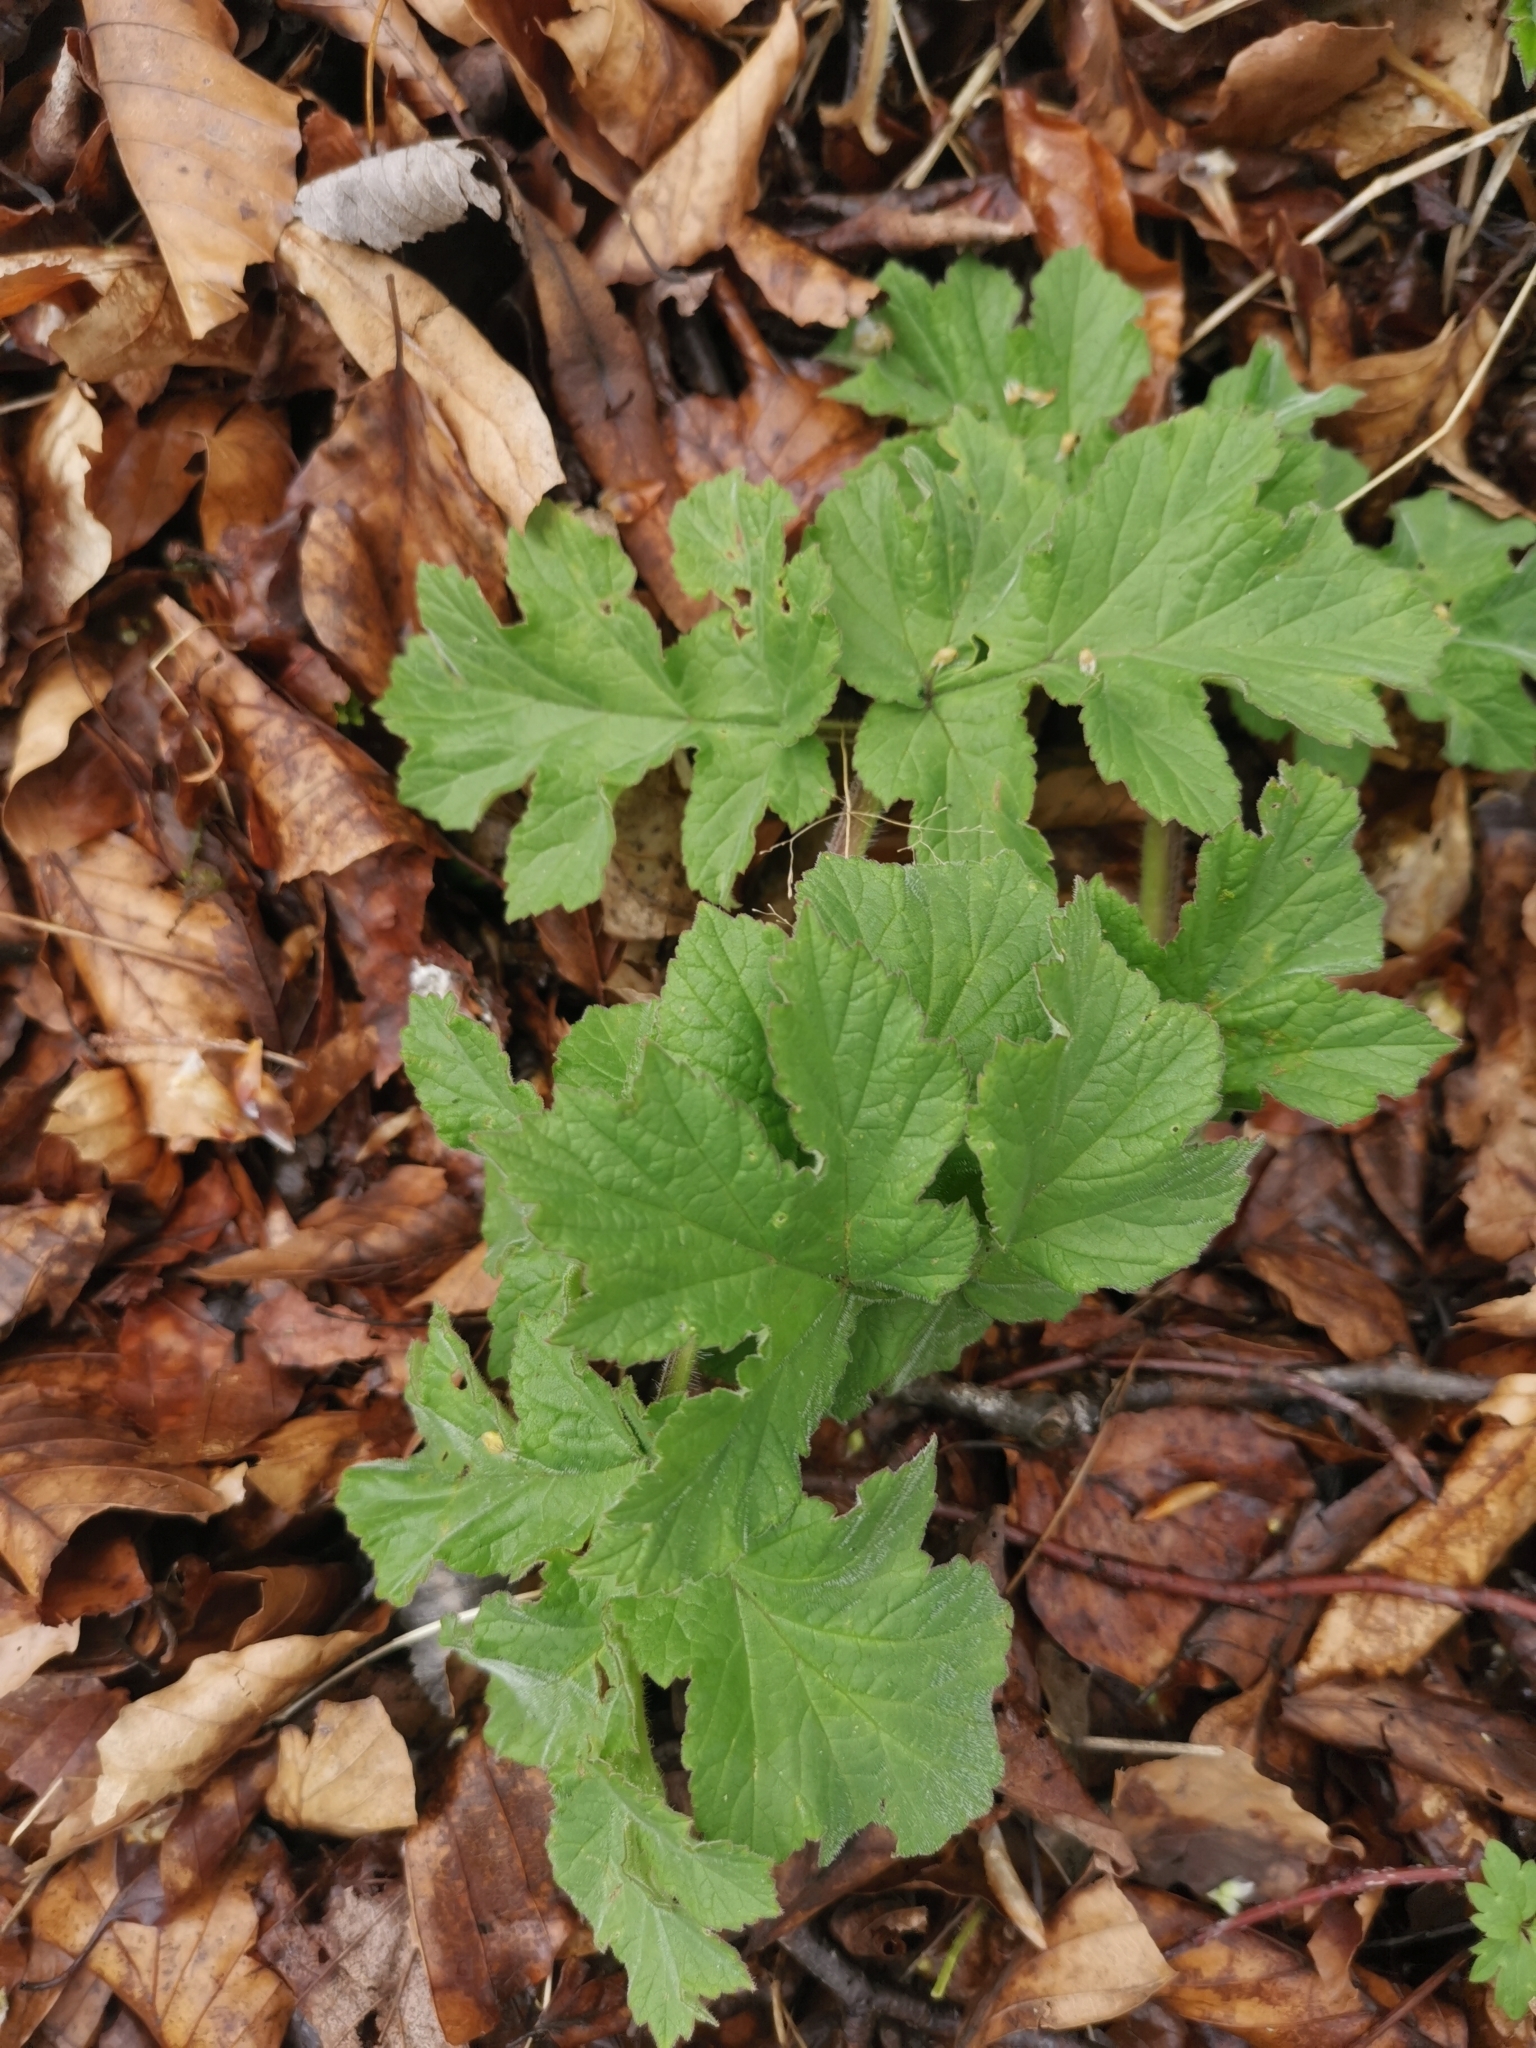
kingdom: Plantae
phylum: Tracheophyta
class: Magnoliopsida
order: Apiales
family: Apiaceae
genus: Heracleum
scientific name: Heracleum sphondylium
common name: Hogweed
